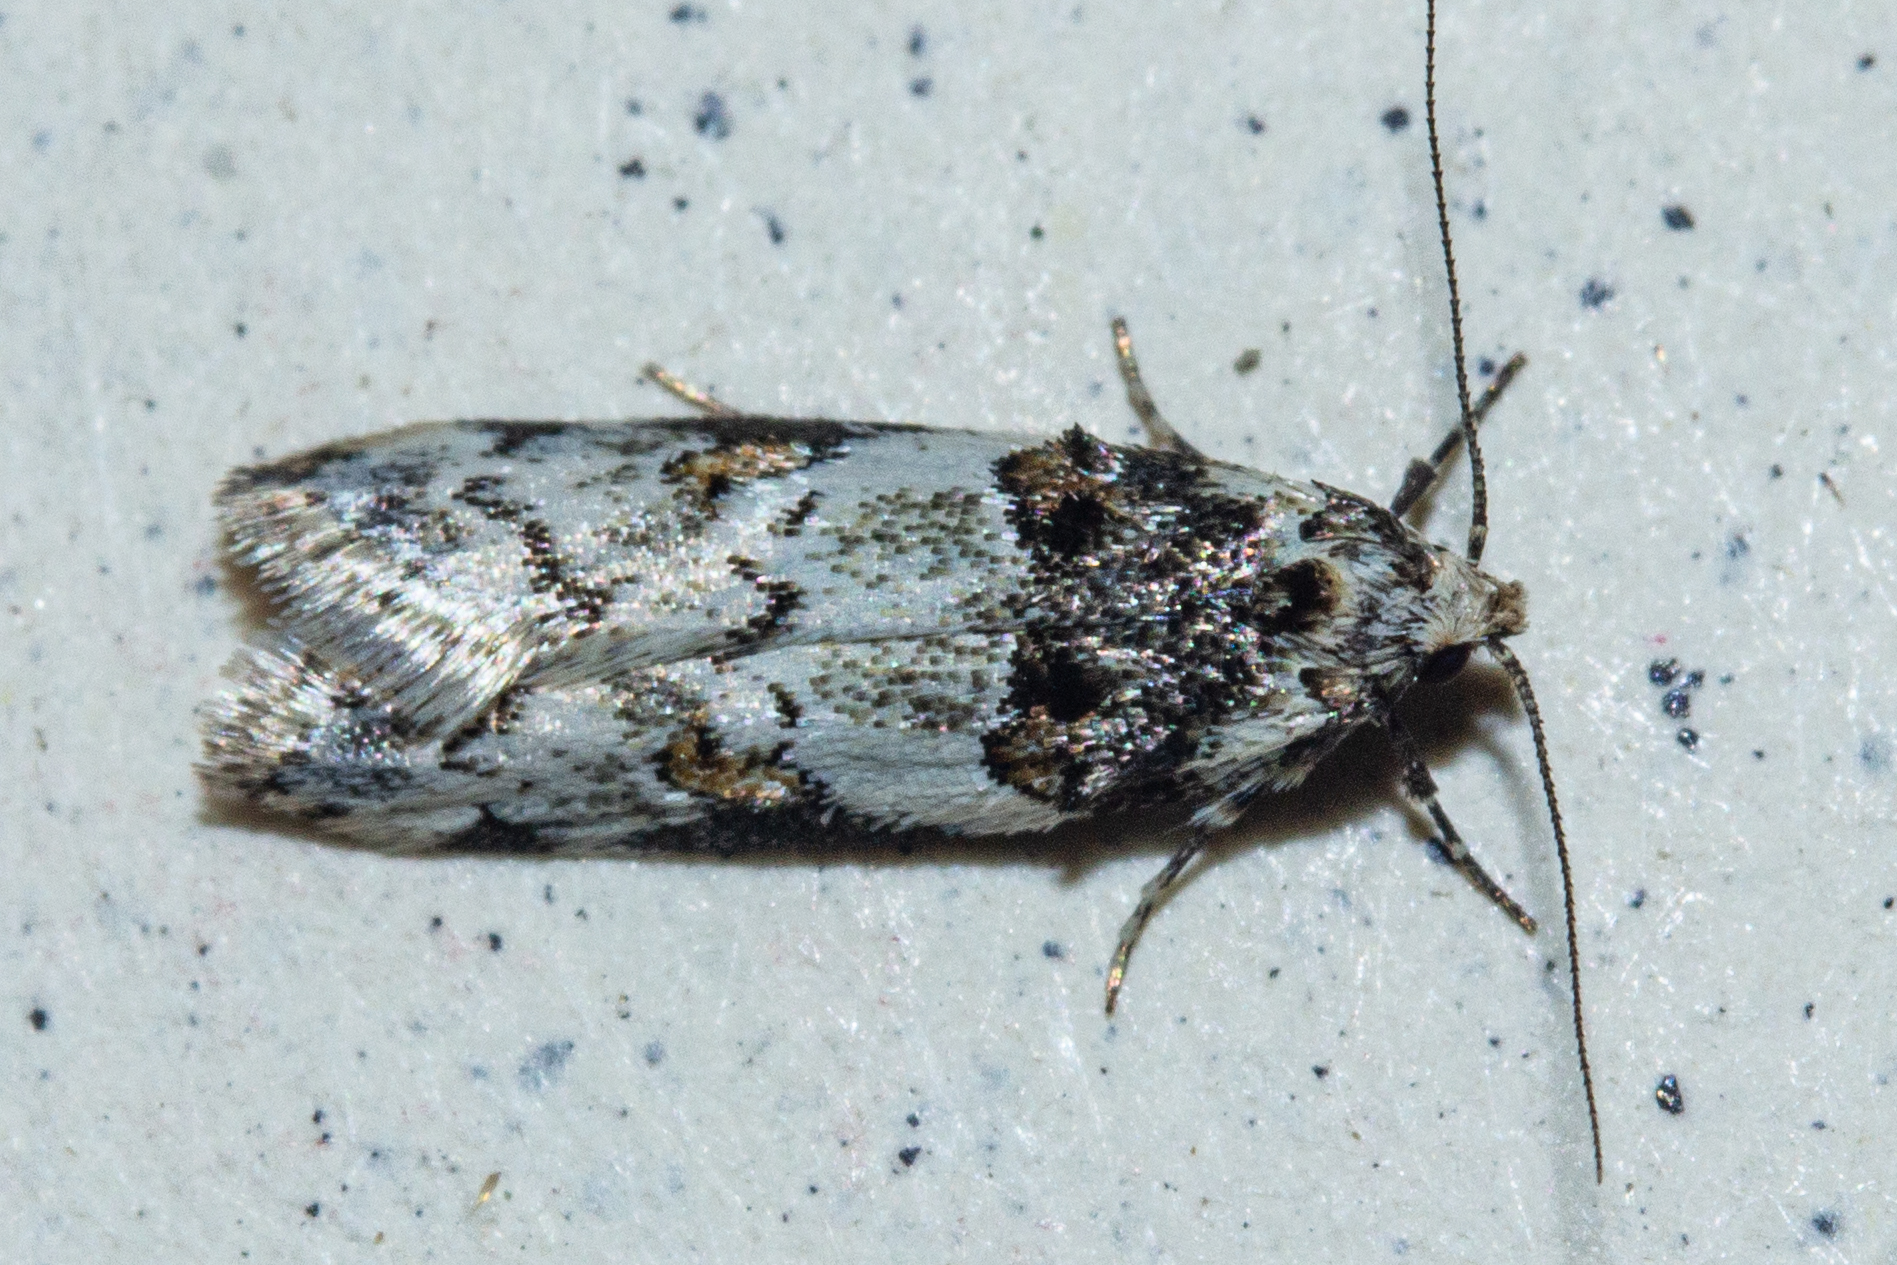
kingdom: Animalia
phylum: Arthropoda
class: Insecta
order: Lepidoptera
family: Oecophoridae
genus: Trachypepla
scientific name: Trachypepla galaxias
